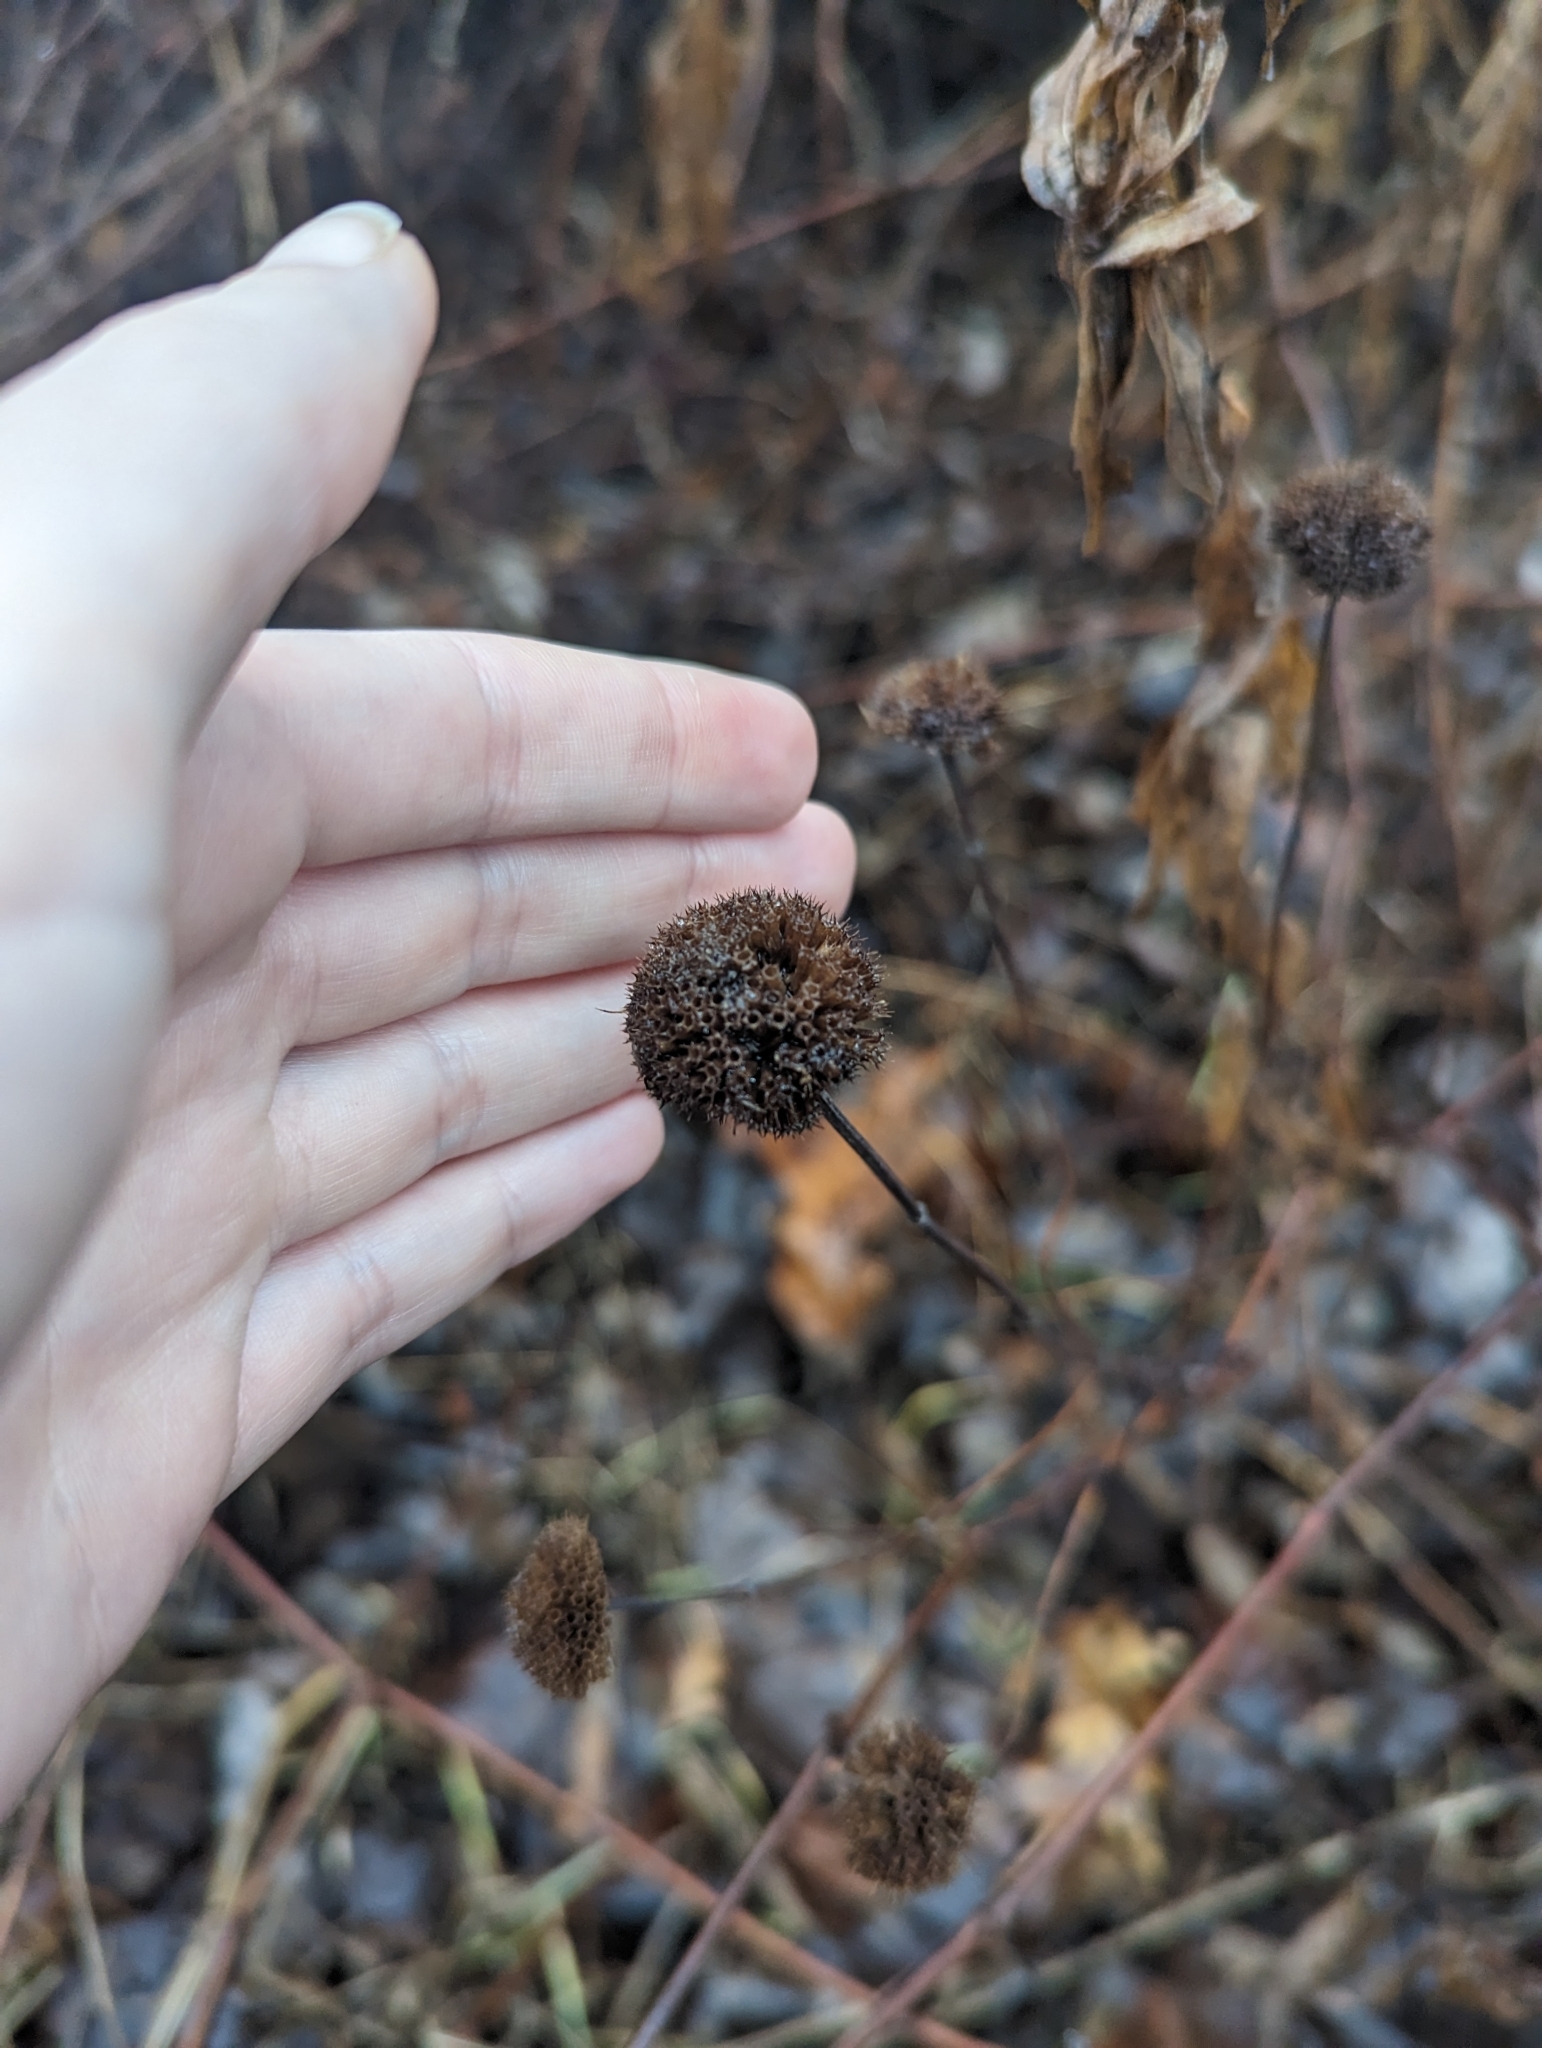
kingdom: Plantae
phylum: Tracheophyta
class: Magnoliopsida
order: Lamiales
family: Lamiaceae
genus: Monarda
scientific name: Monarda fistulosa
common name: Purple beebalm
